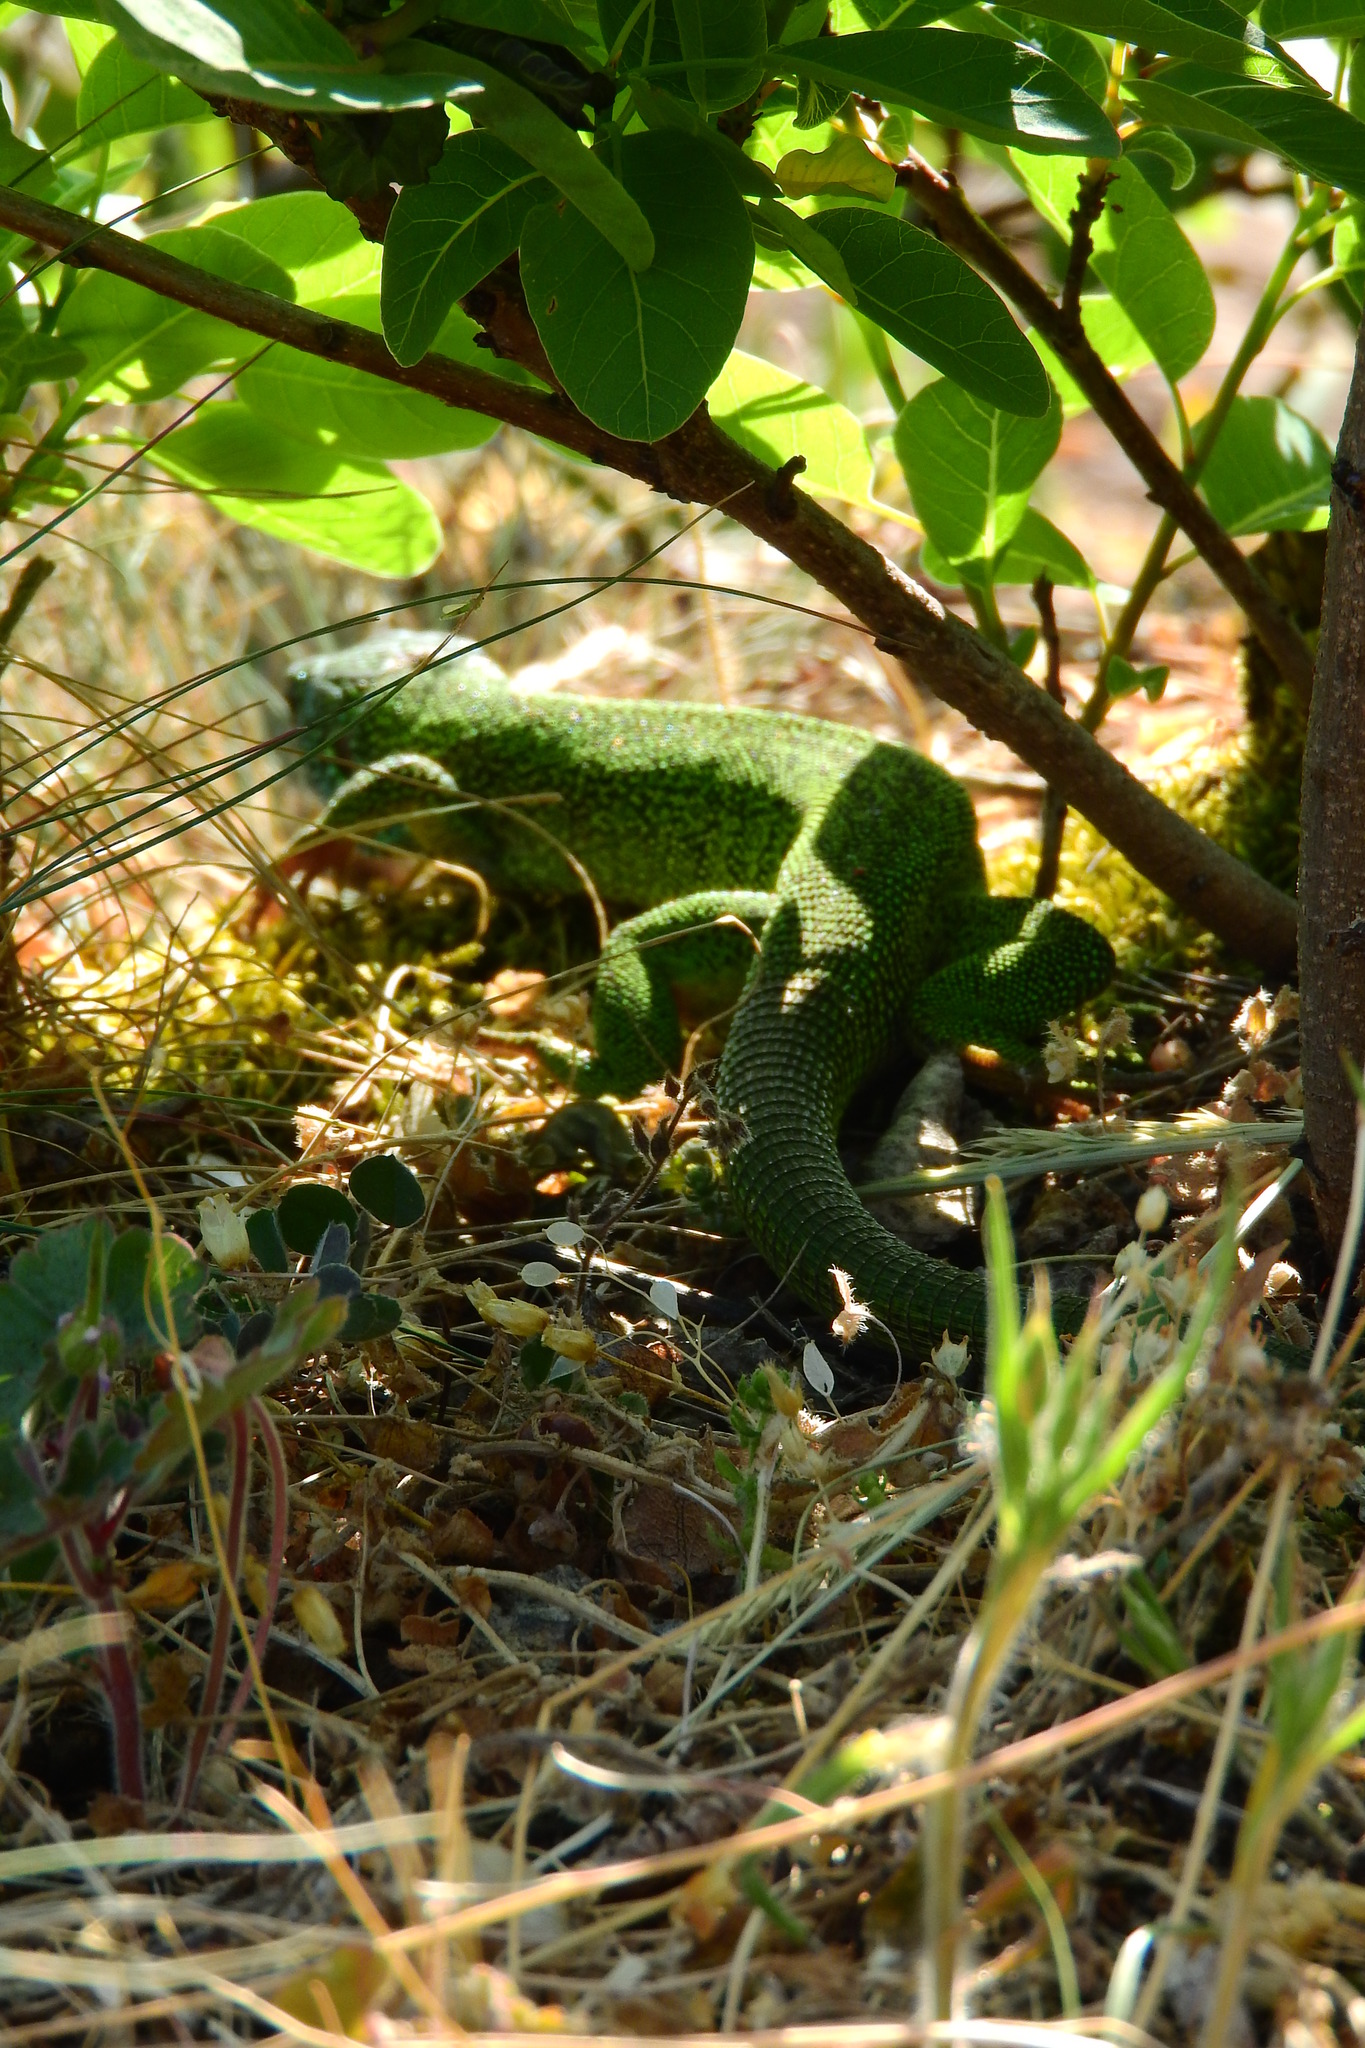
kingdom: Animalia
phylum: Chordata
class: Squamata
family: Lacertidae
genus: Lacerta
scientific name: Lacerta viridis
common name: European green lizard
